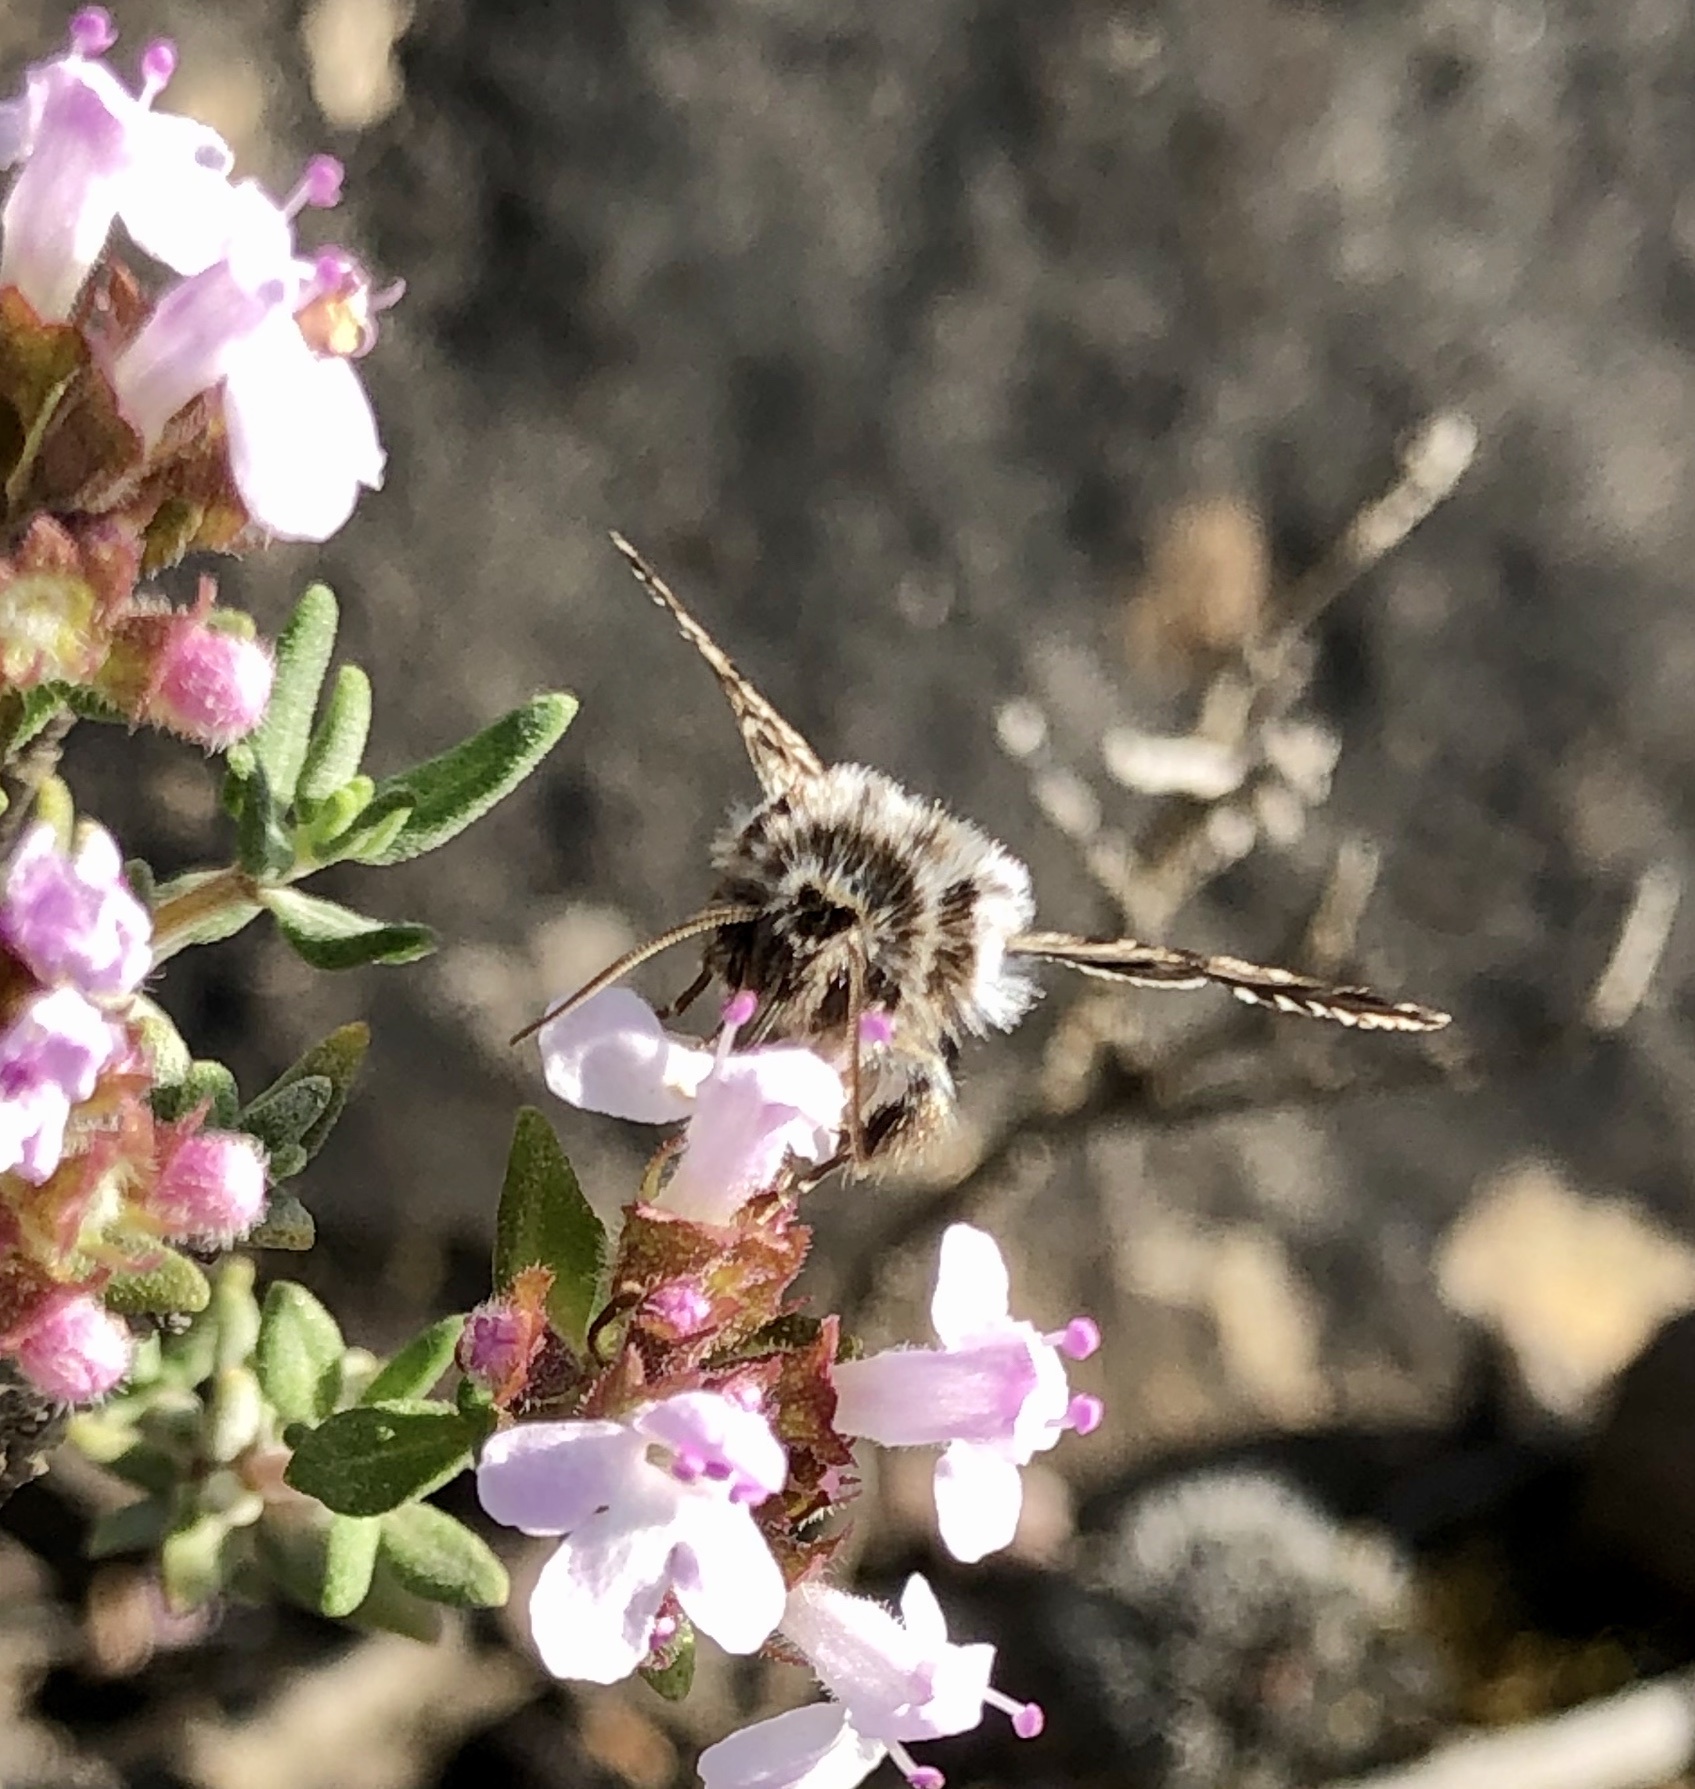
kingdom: Animalia
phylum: Arthropoda
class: Insecta
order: Lepidoptera
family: Noctuidae
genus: Omia
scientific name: Omia cyclopea
